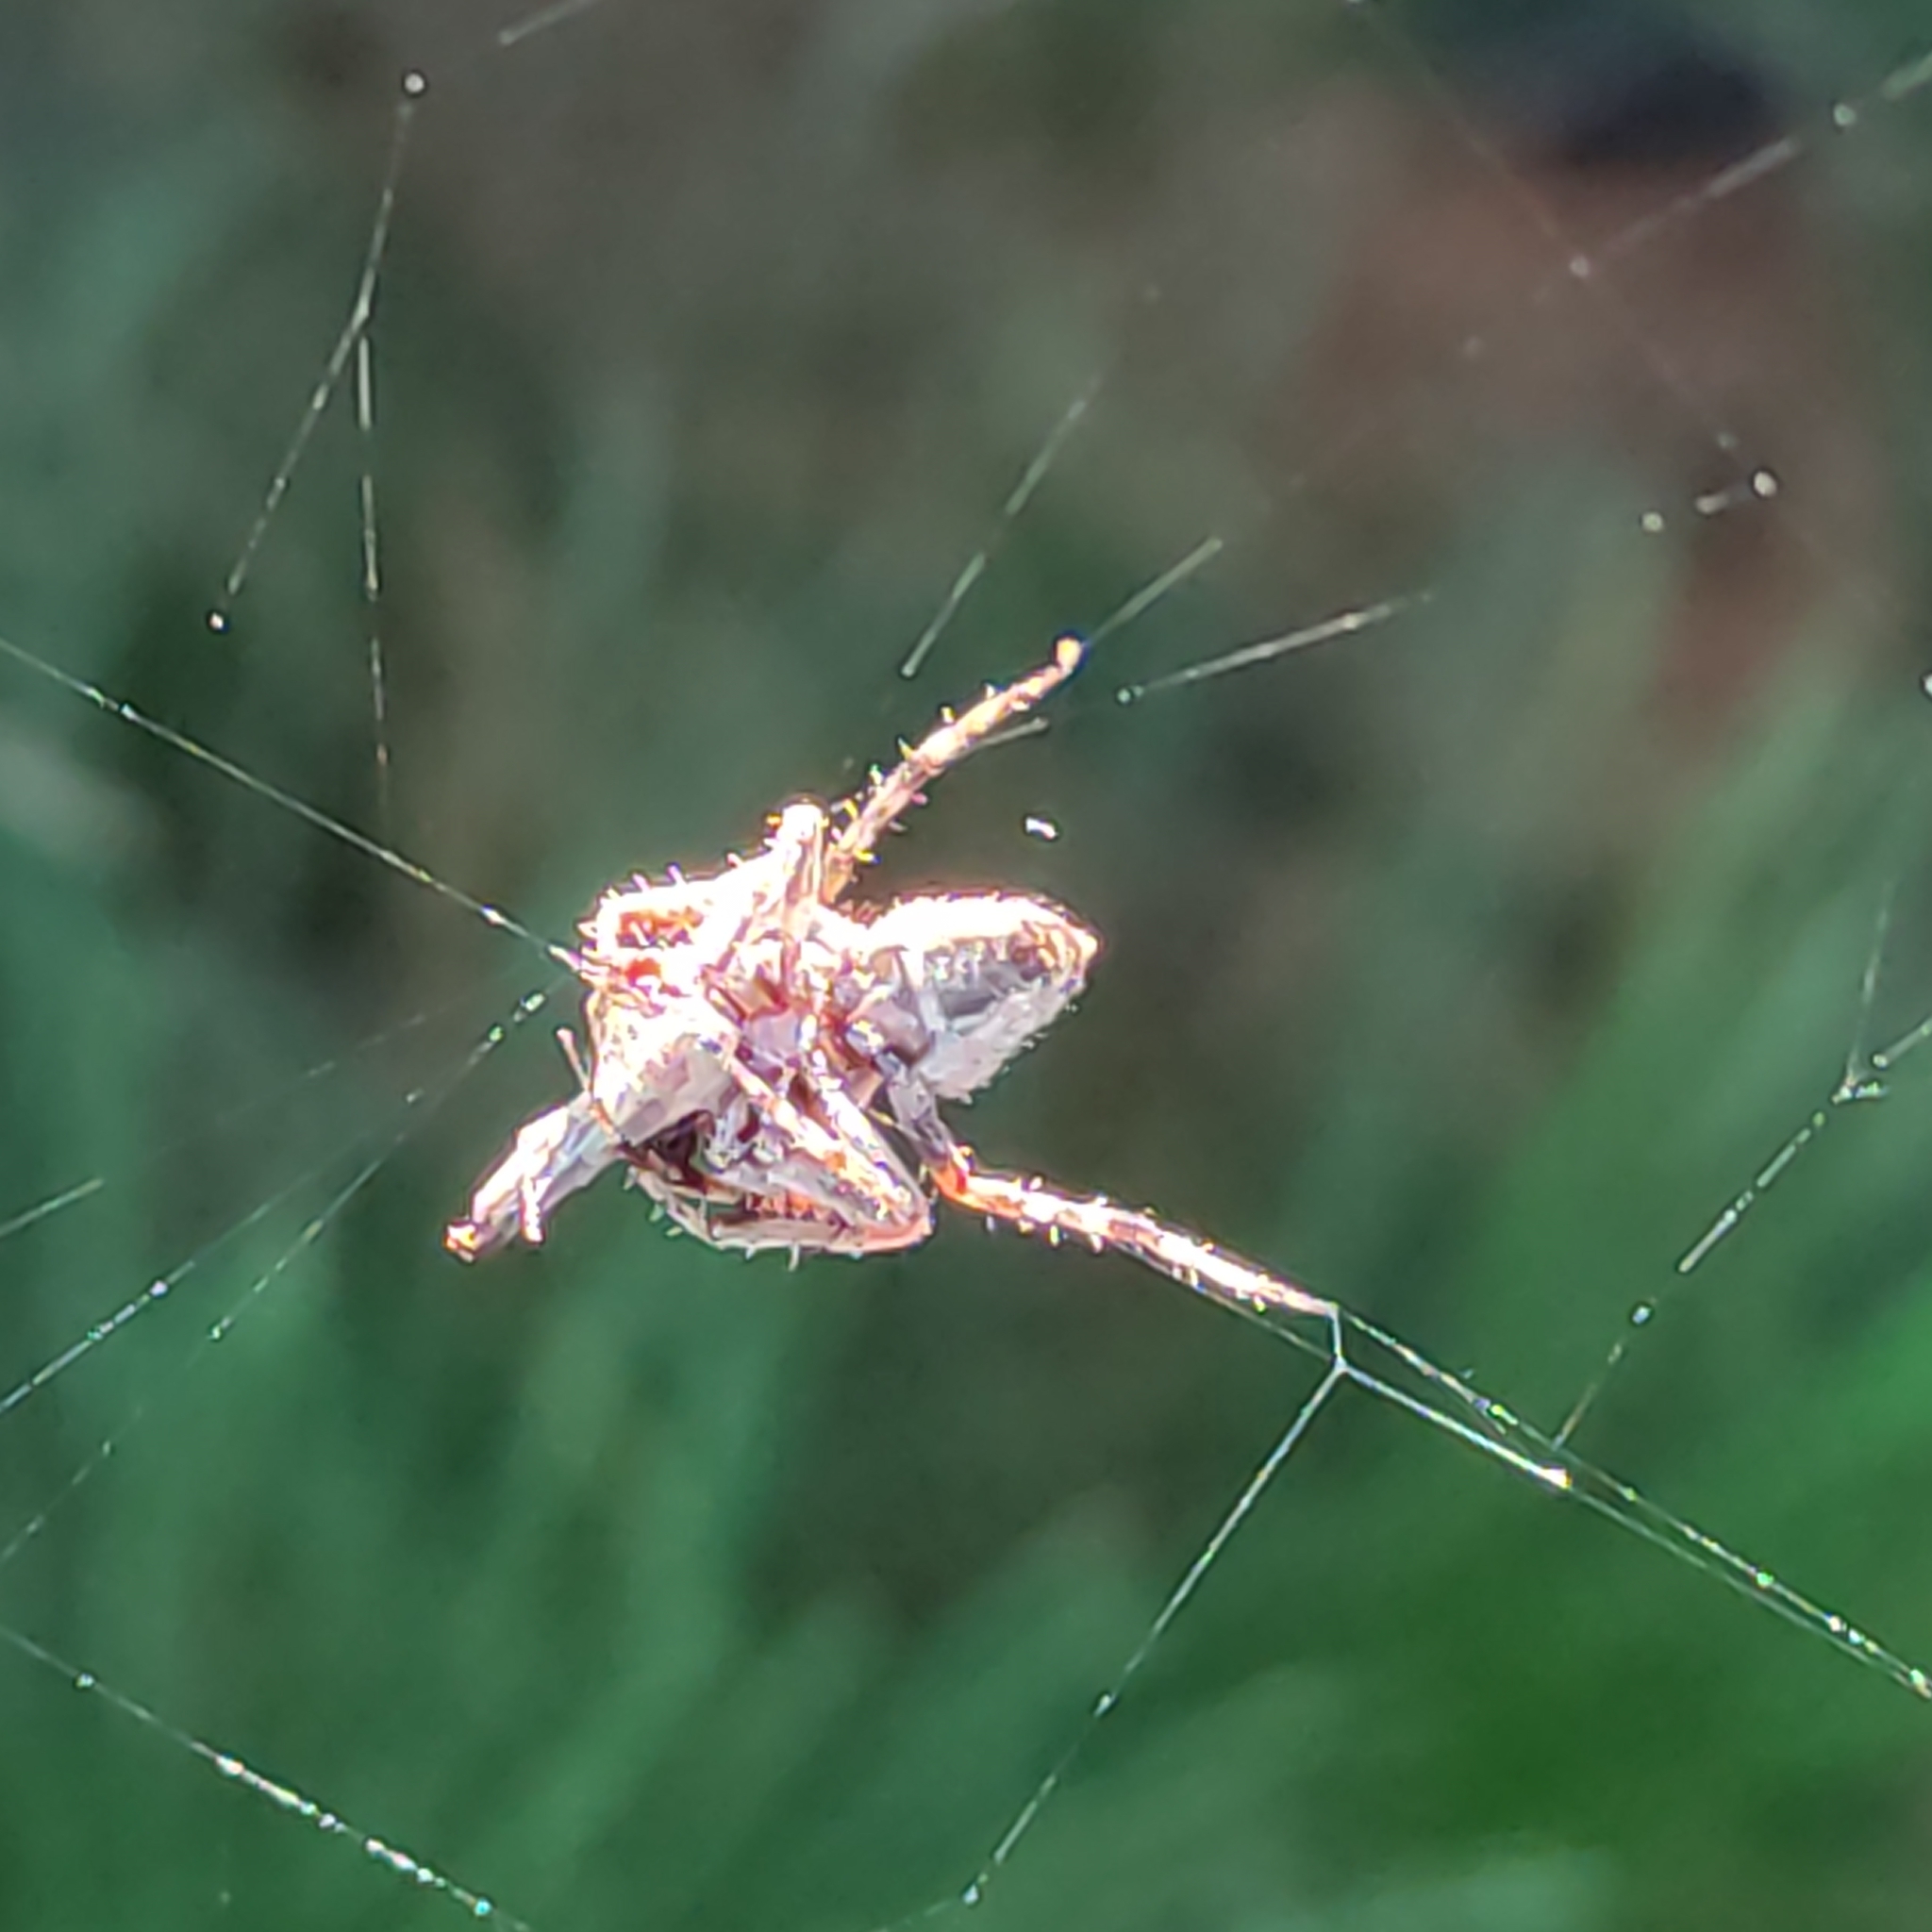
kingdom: Animalia
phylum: Arthropoda
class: Arachnida
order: Araneae
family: Araneidae
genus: Eriophora
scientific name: Eriophora pustulosa
